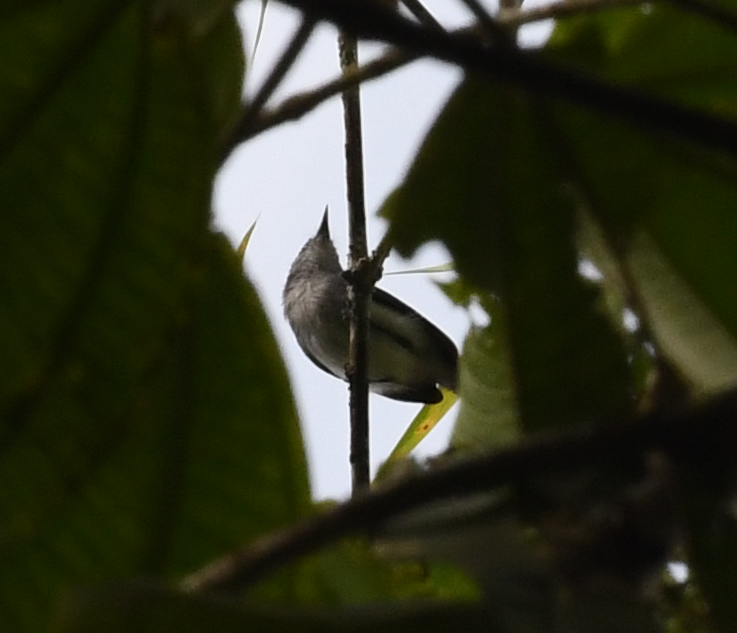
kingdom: Animalia
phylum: Chordata
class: Aves
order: Passeriformes
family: Polioptilidae
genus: Polioptila
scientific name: Polioptila schistaceigula
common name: Slate-throated gnatcatcher
